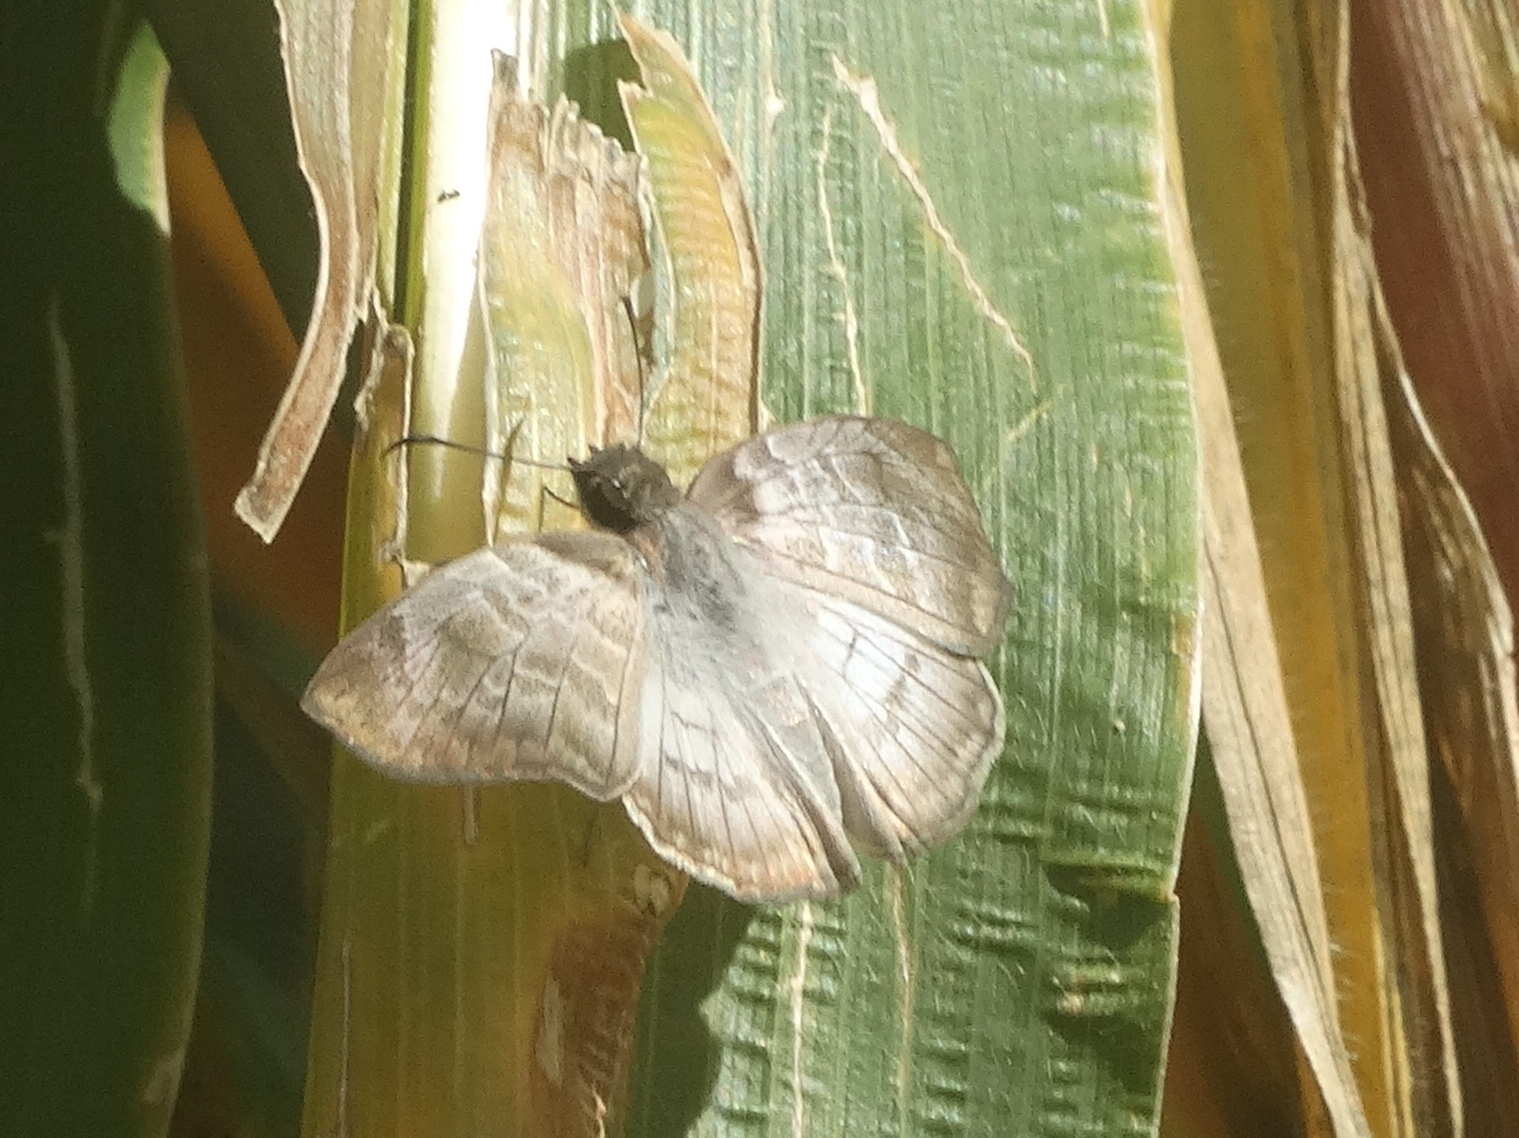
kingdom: Animalia
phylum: Arthropoda
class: Insecta
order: Lepidoptera
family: Hesperiidae
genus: Mylon
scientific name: Mylon pelopidas
